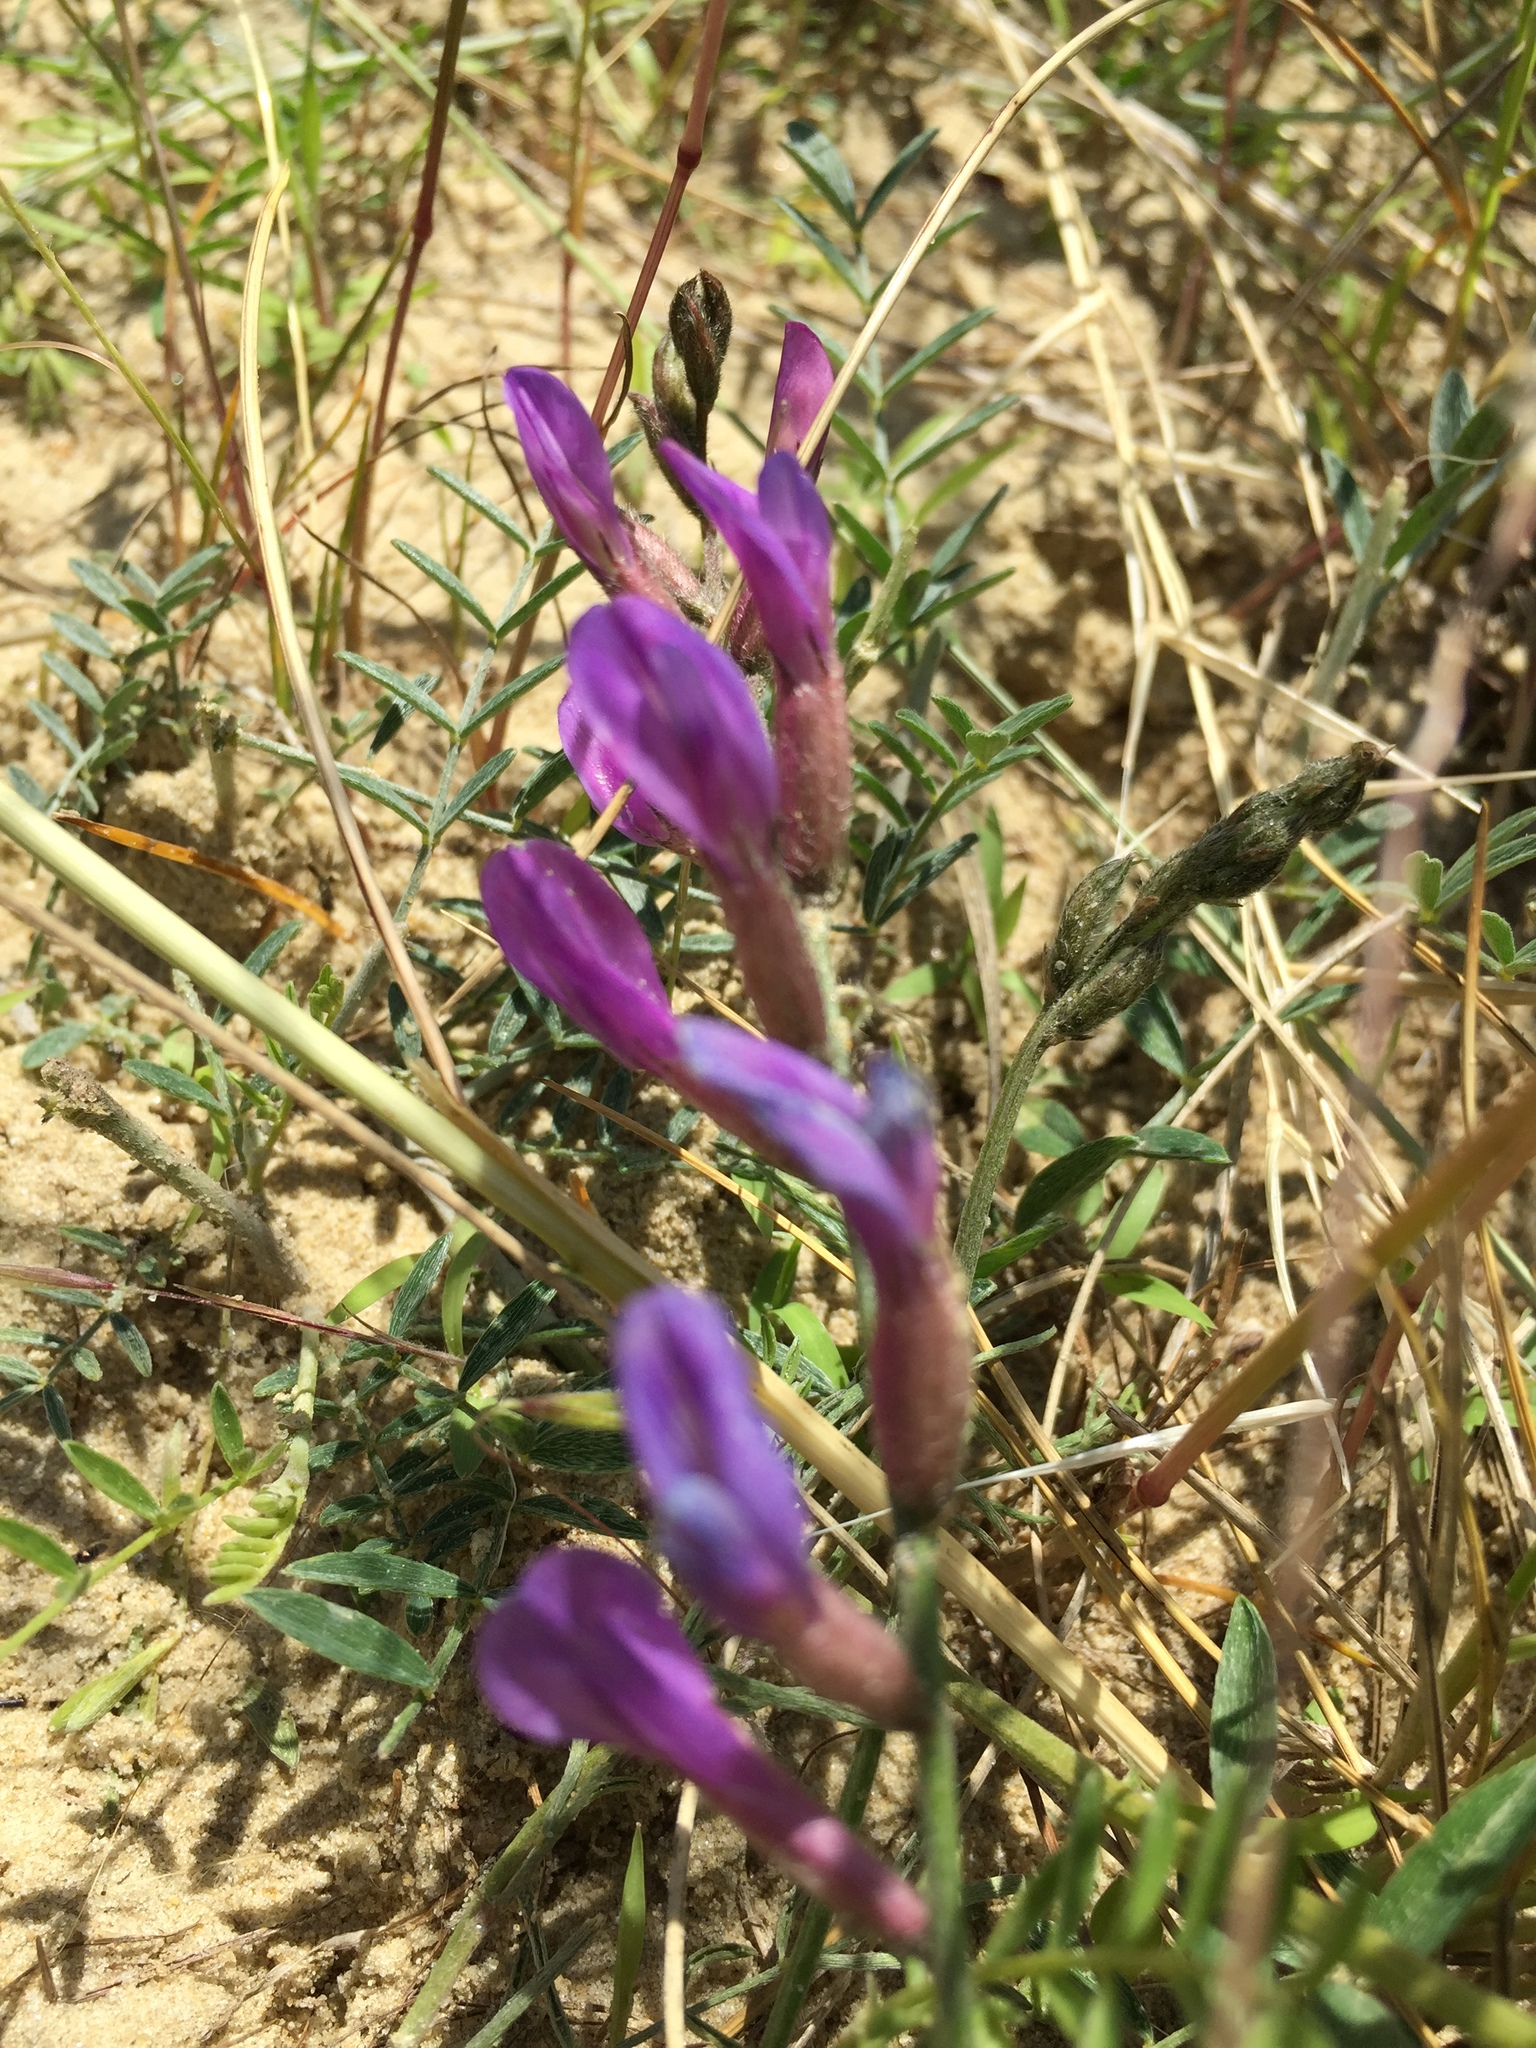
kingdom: Plantae
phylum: Tracheophyta
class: Magnoliopsida
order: Fabales
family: Fabaceae
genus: Astragalus
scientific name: Astragalus varius
